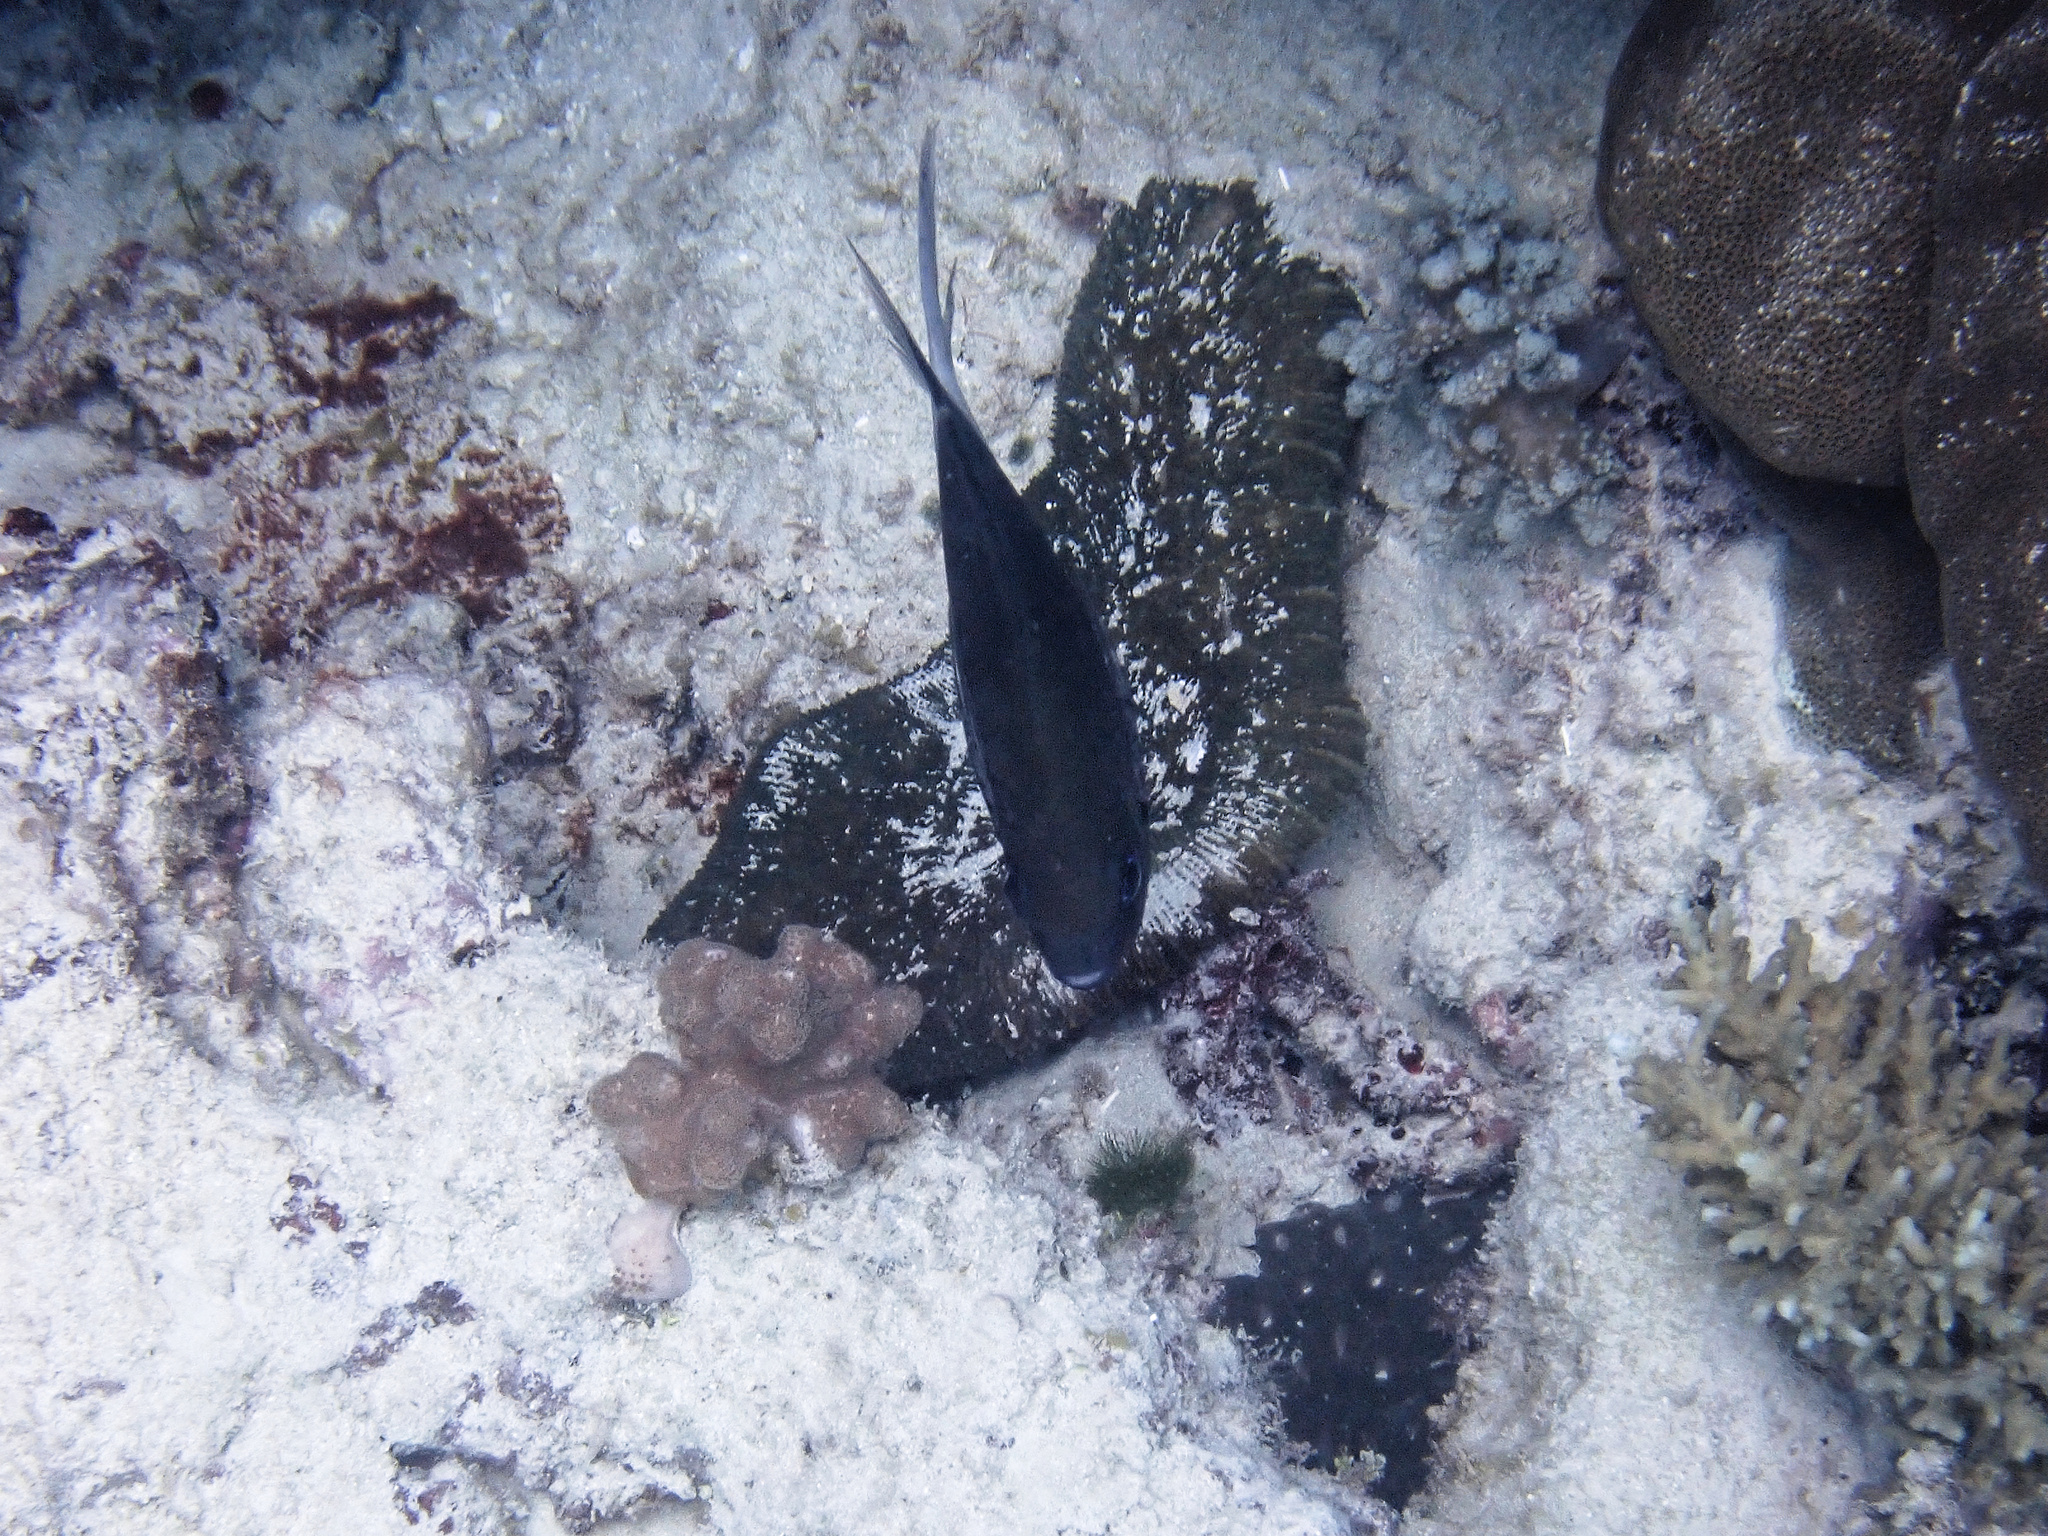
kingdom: Animalia
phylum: Chordata
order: Perciformes
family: Pomacentridae
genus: Acanthochromis
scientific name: Acanthochromis polyacanthus
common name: Spiny chromis
